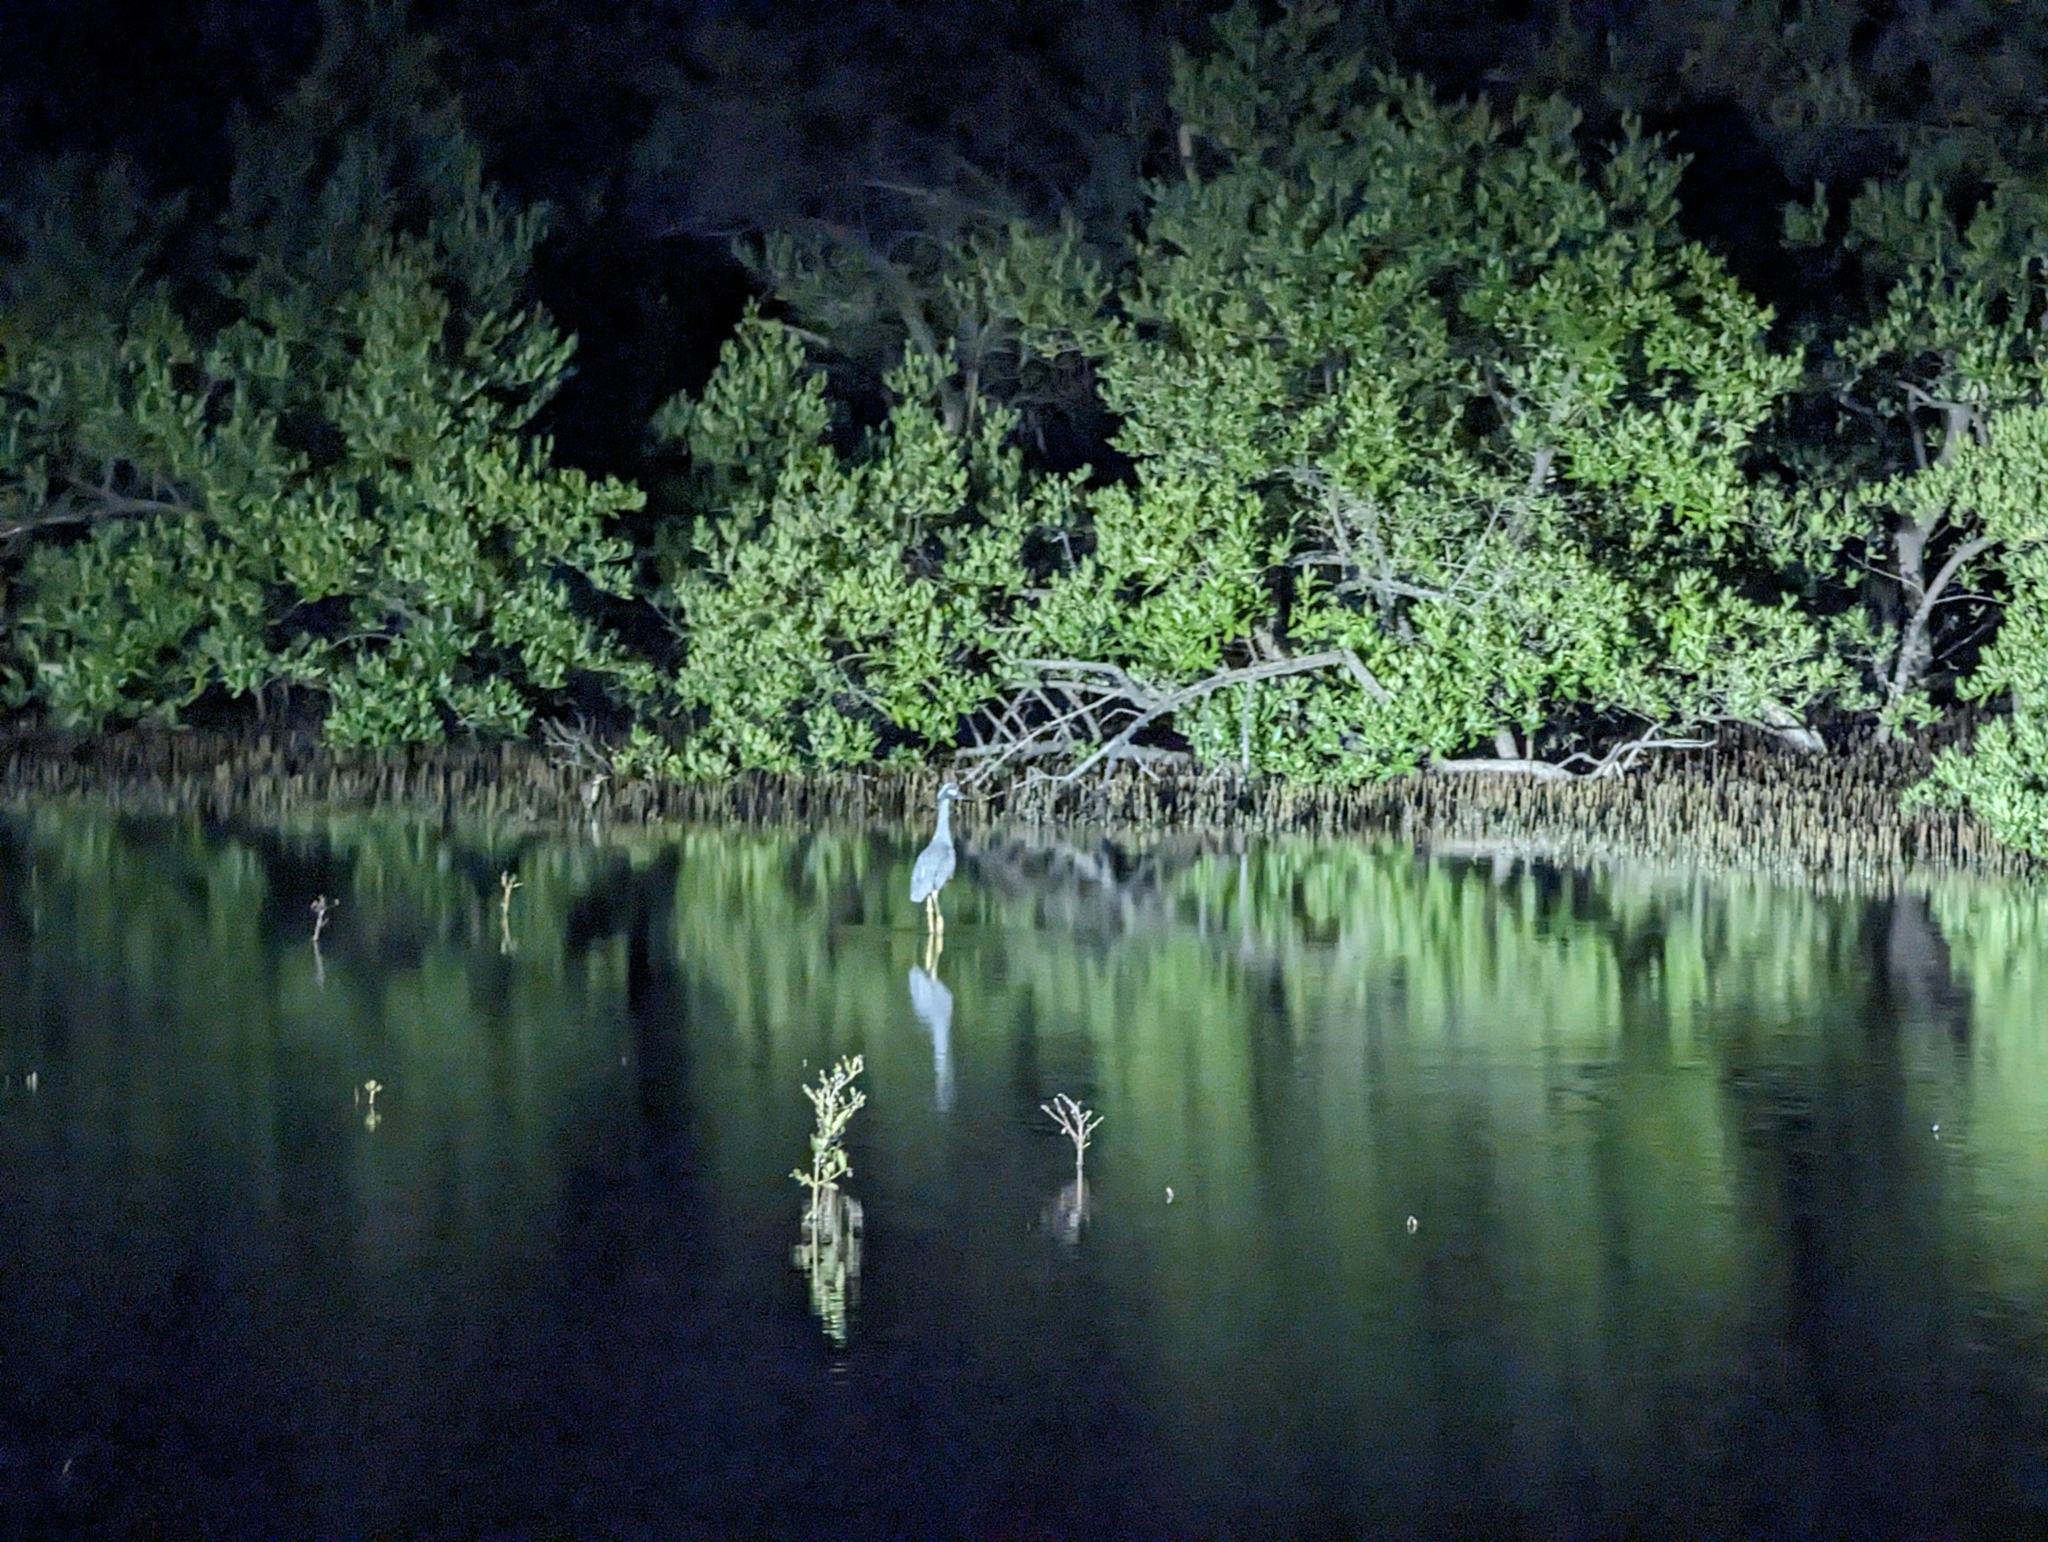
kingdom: Animalia
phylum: Chordata
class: Aves
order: Pelecaniformes
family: Ardeidae
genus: Nyctanassa
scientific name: Nyctanassa violacea
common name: Yellow-crowned night heron
